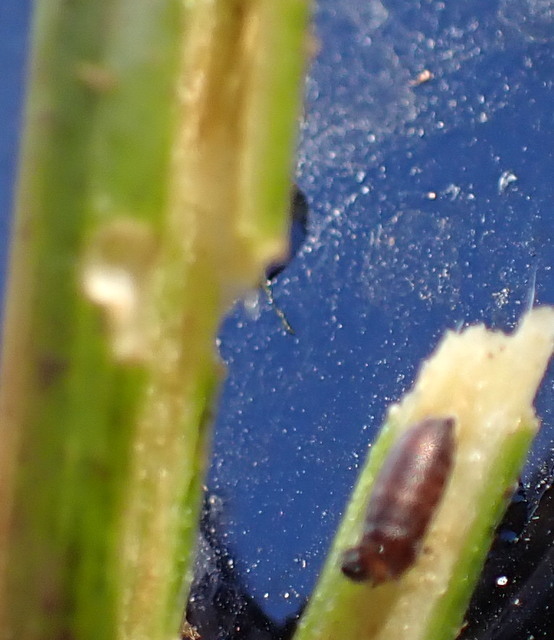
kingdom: Animalia
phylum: Arthropoda
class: Insecta
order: Coleoptera
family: Chrysomelidae
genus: Agasicles
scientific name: Agasicles hygrophila
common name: Alligatorweed flea beetle
